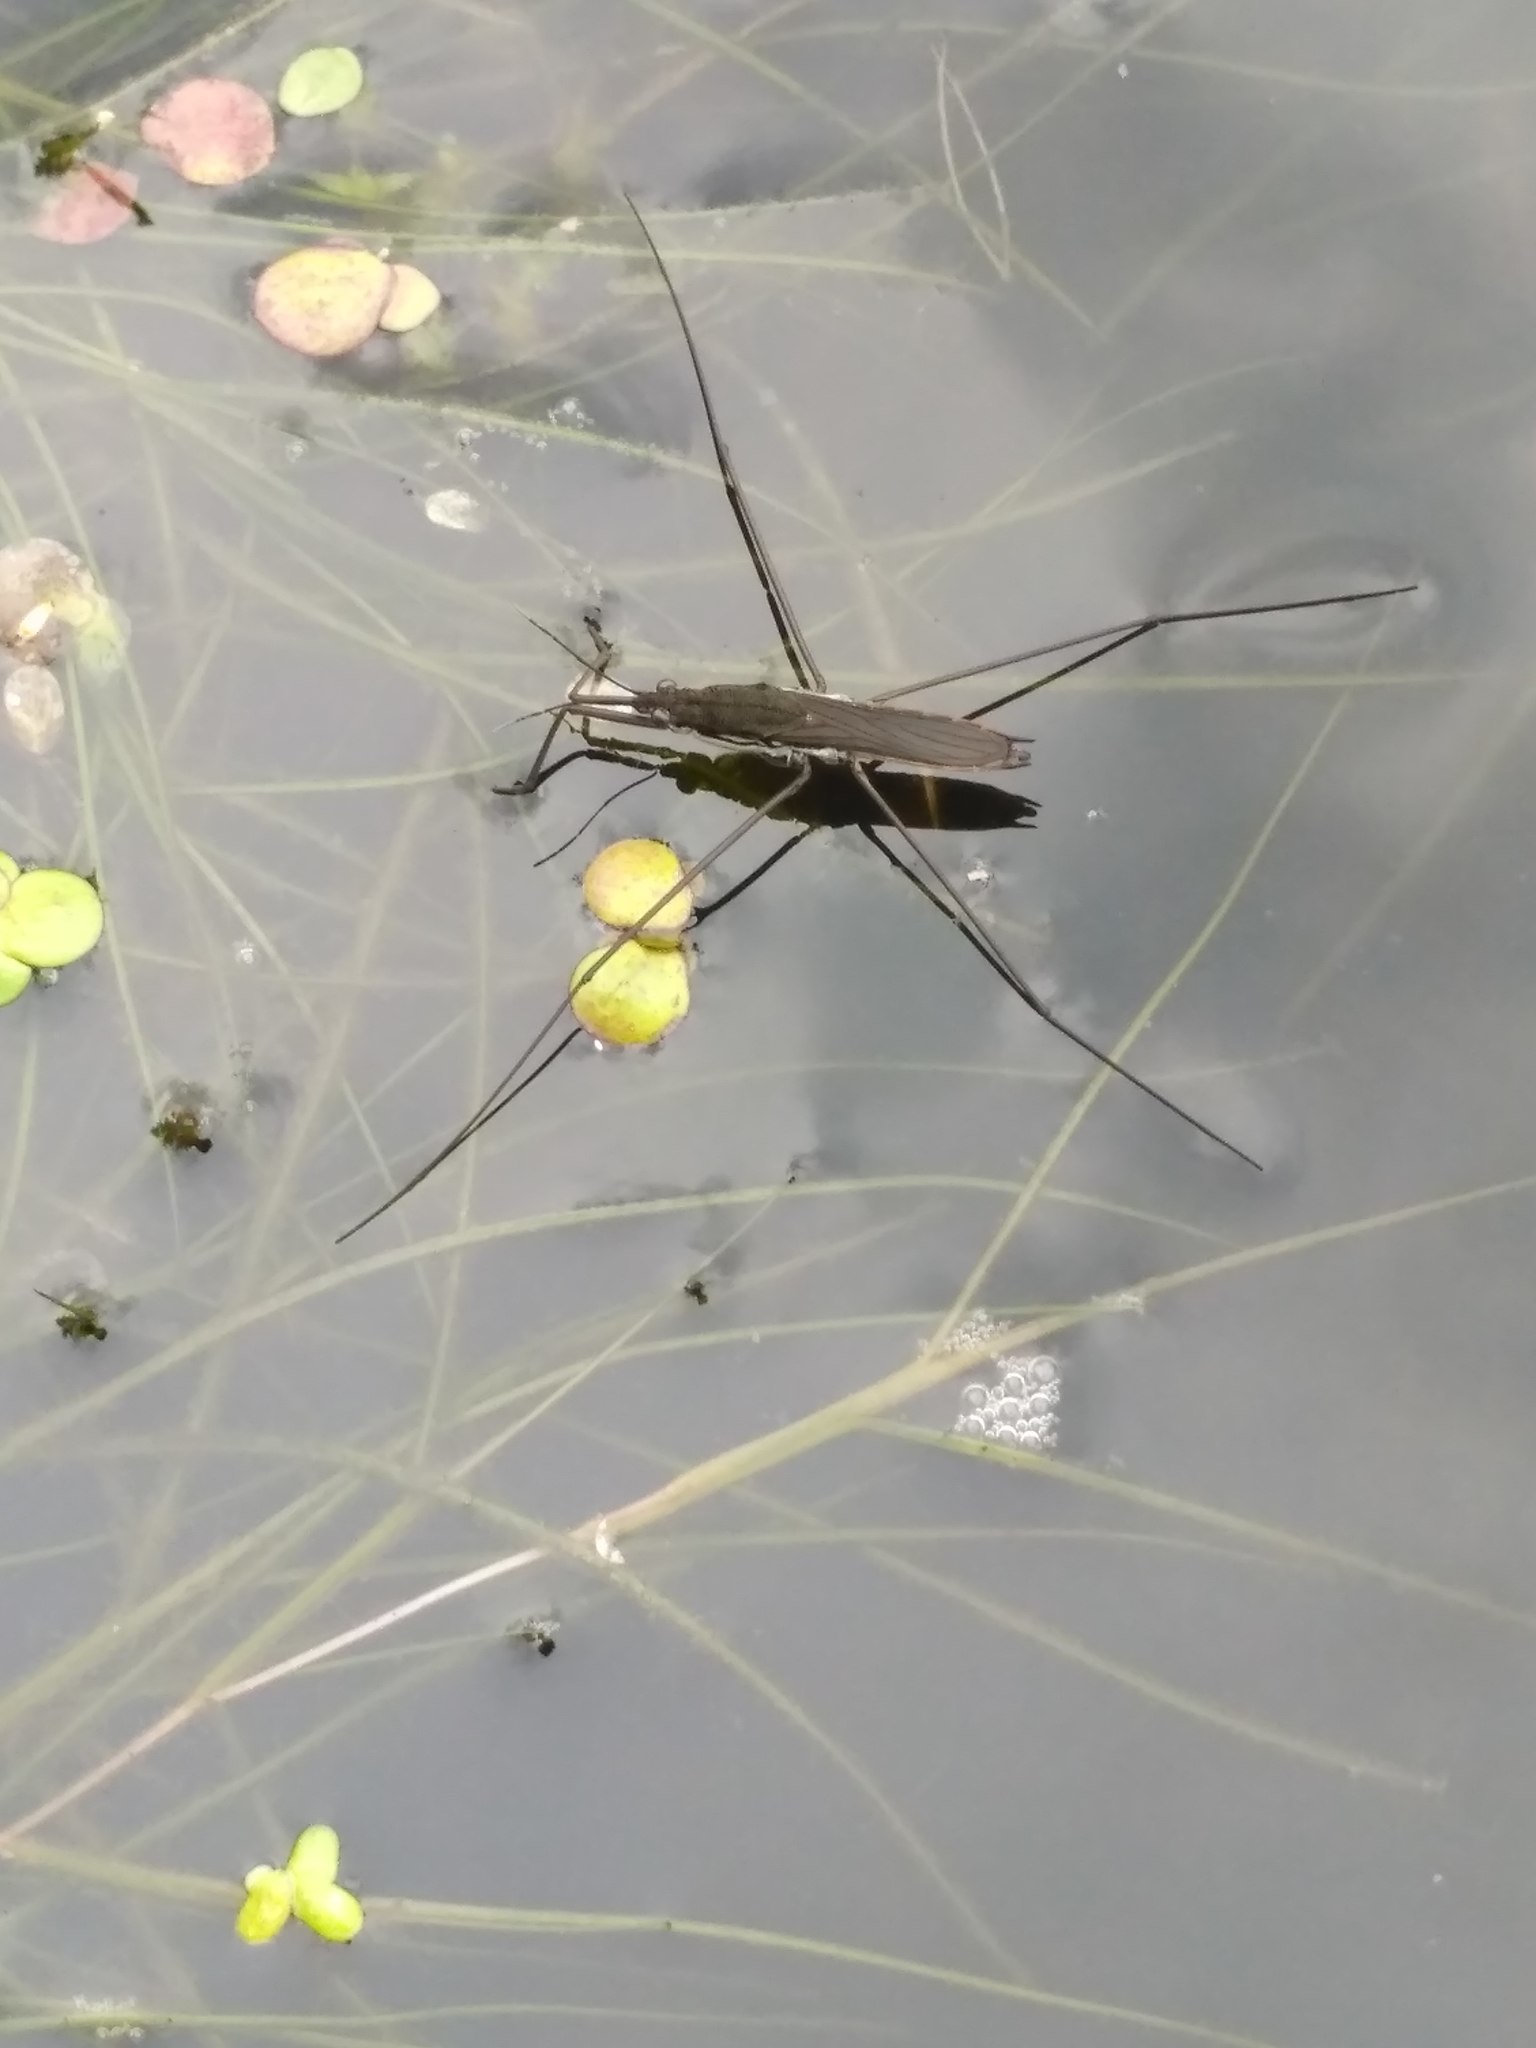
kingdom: Animalia
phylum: Arthropoda
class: Insecta
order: Hemiptera
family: Gerridae
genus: Aquarius
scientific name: Aquarius paludum
